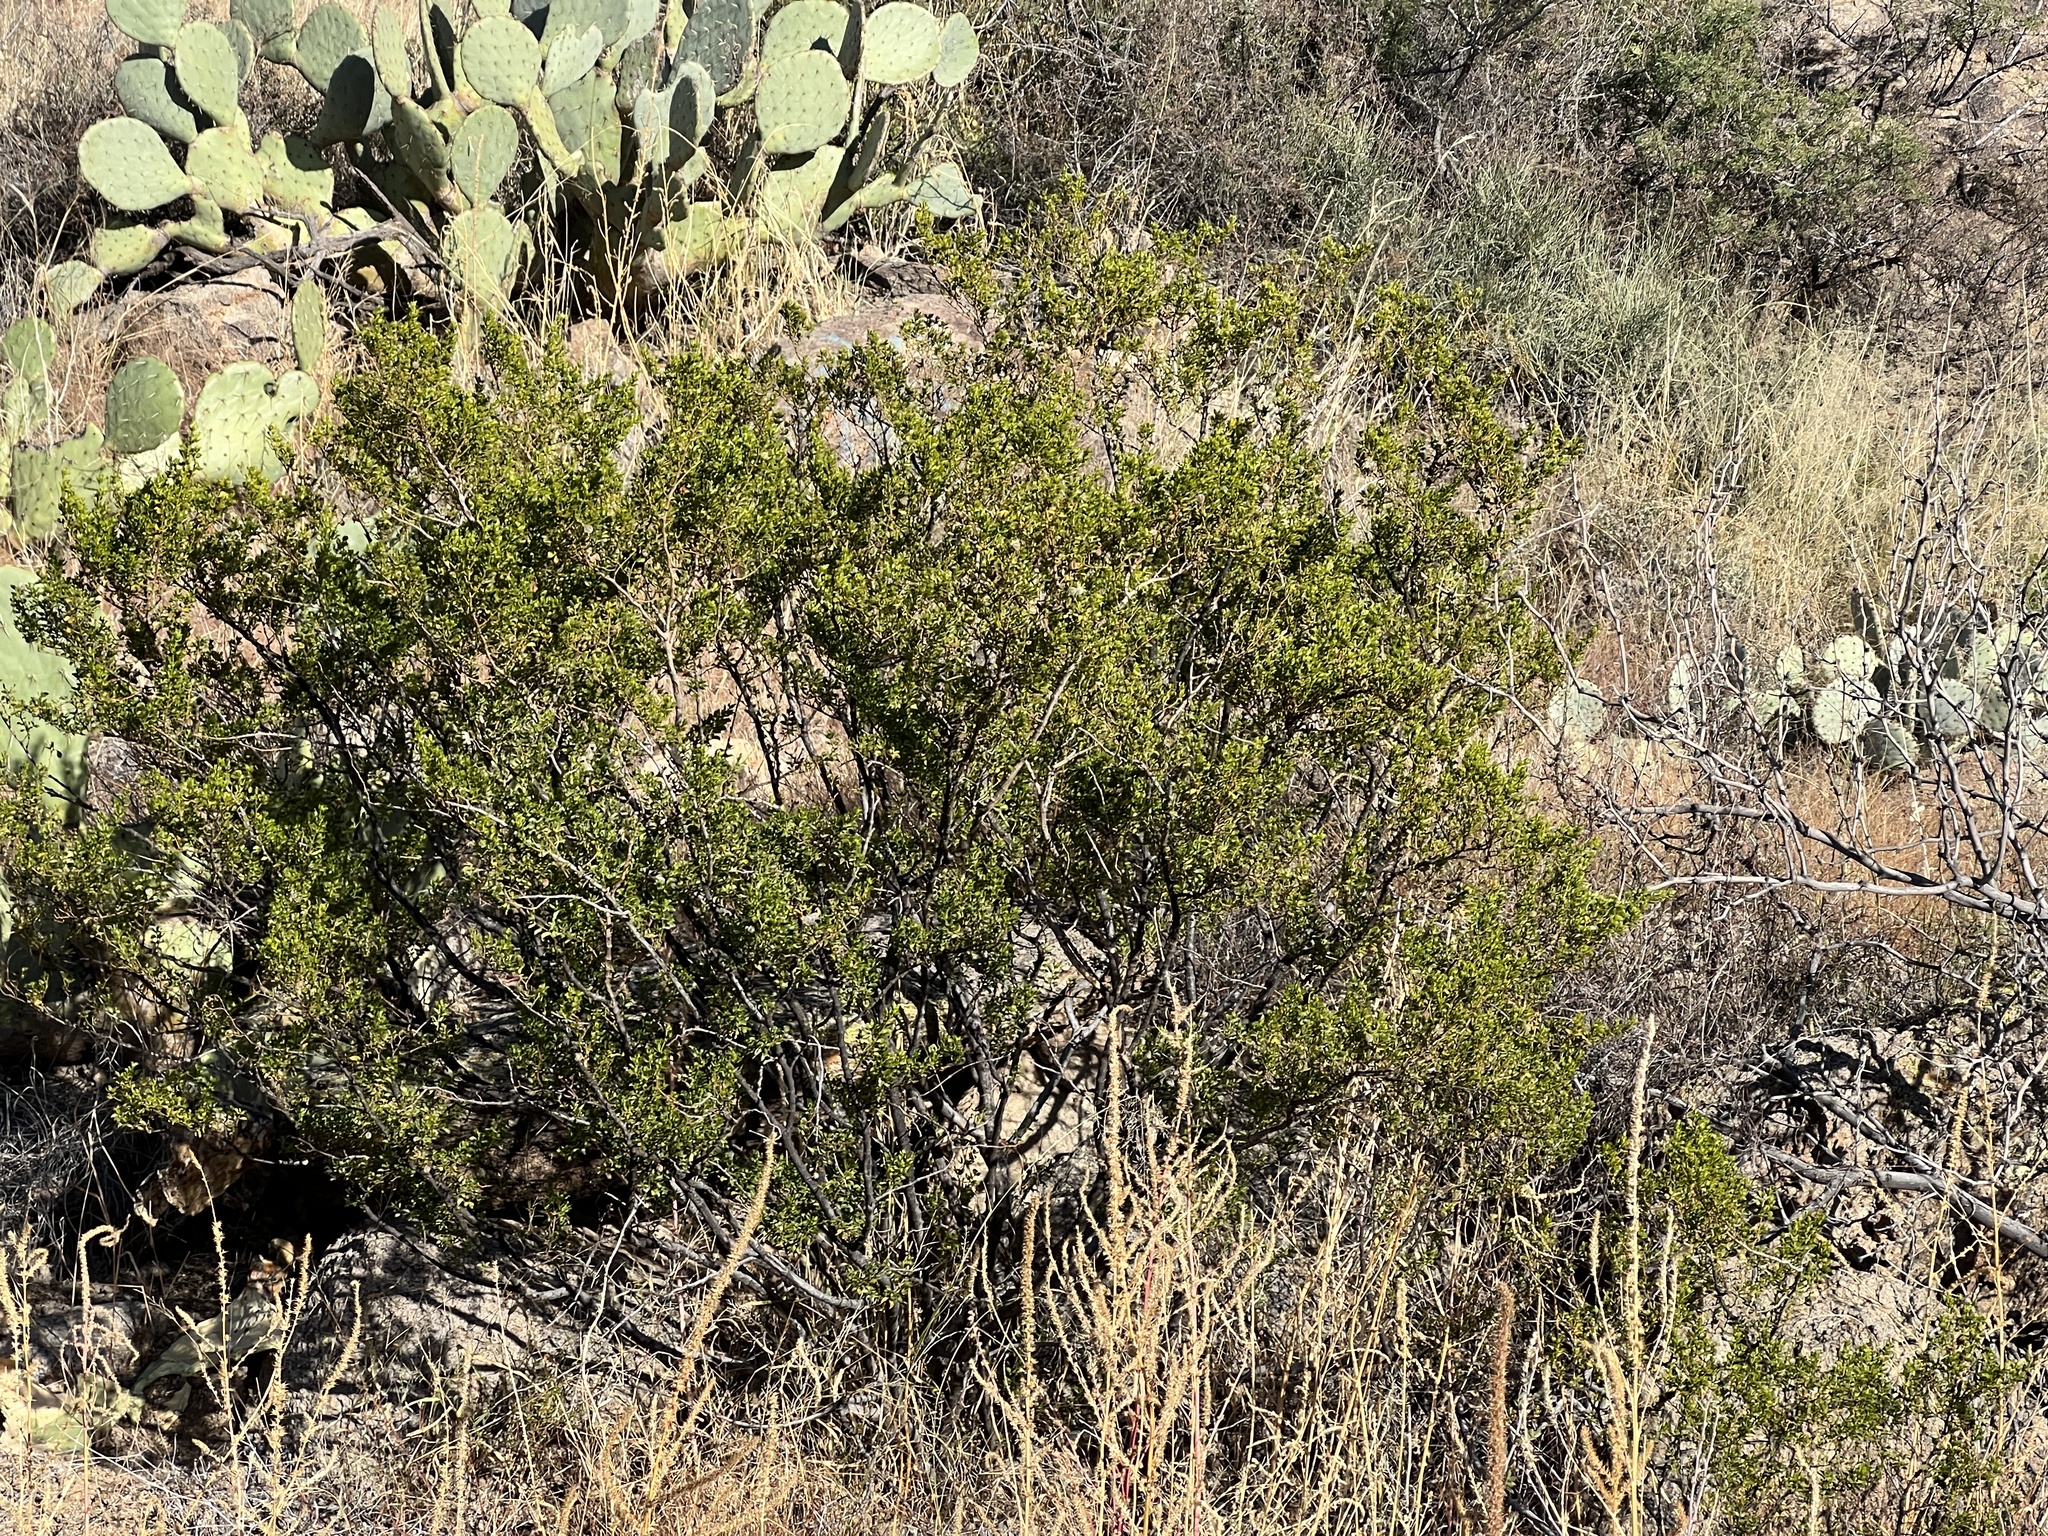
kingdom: Plantae
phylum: Tracheophyta
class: Magnoliopsida
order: Zygophyllales
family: Zygophyllaceae
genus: Larrea
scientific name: Larrea tridentata
